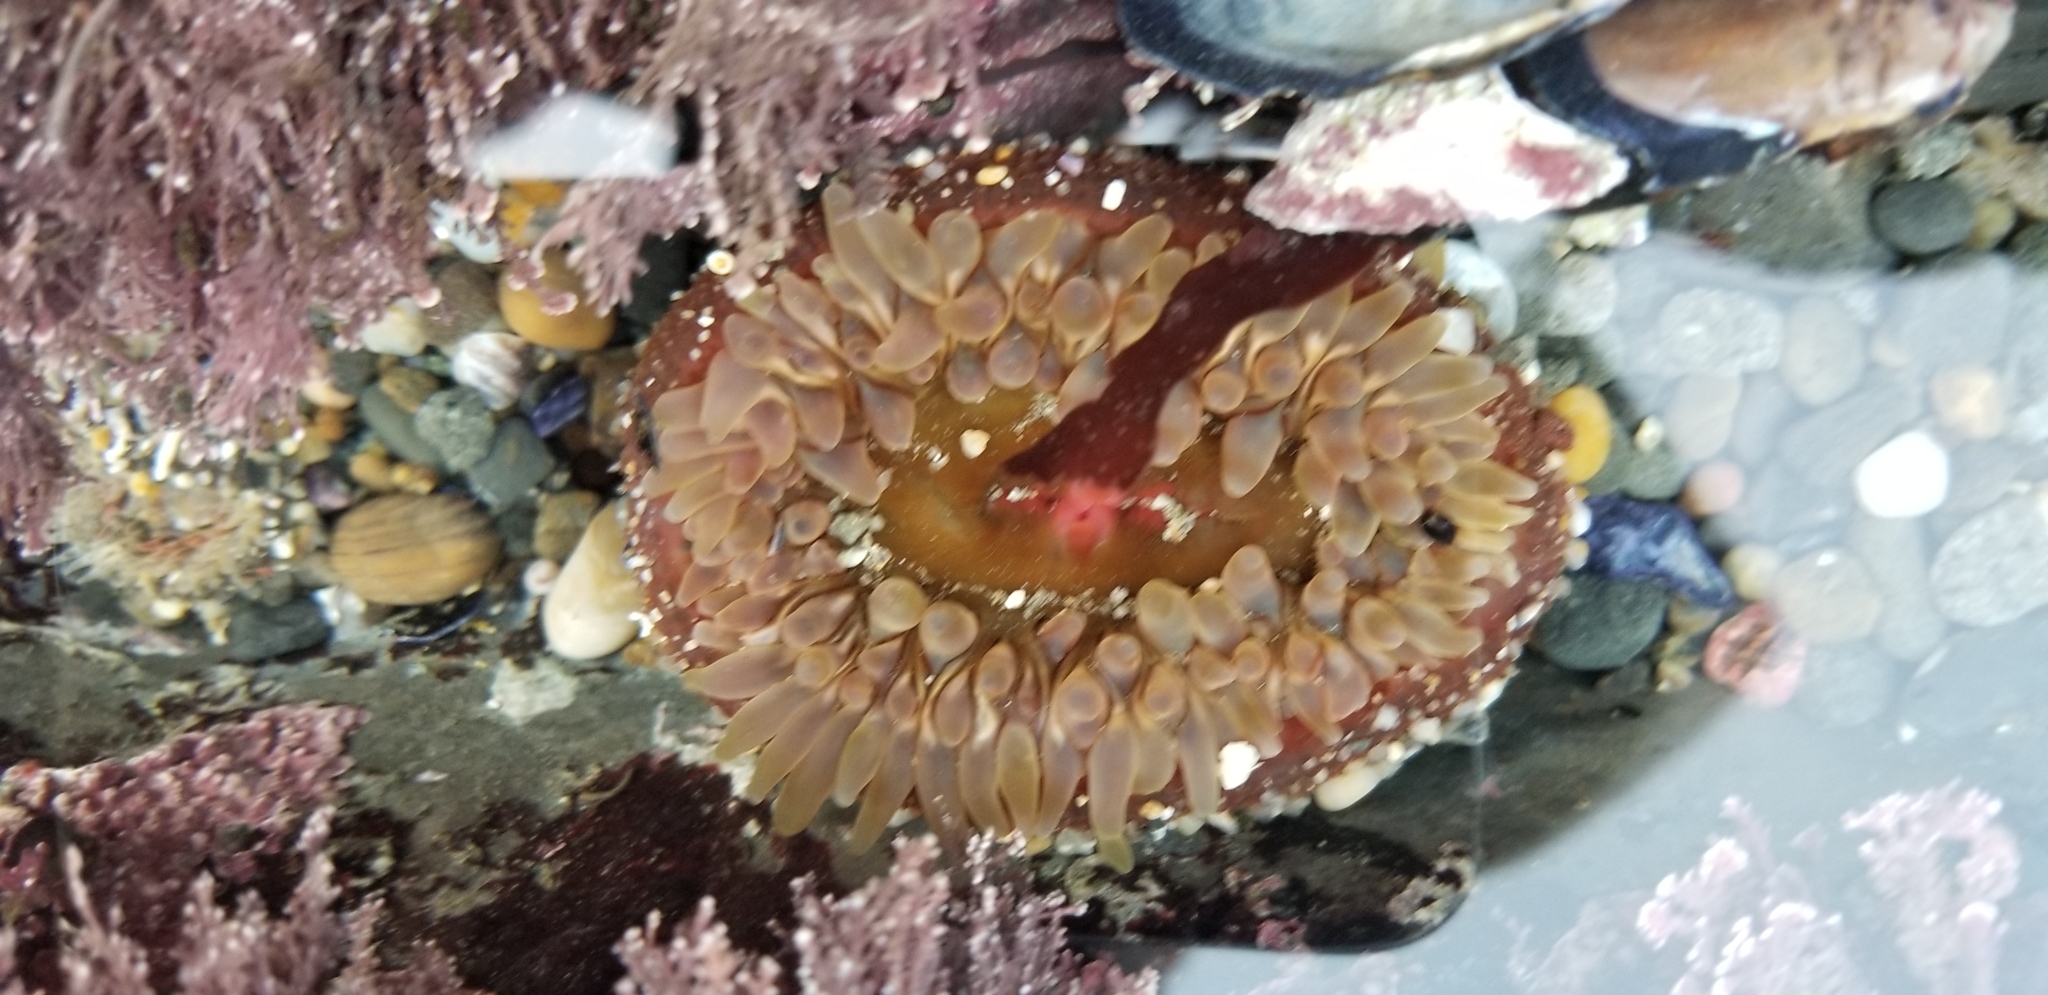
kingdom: Animalia
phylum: Cnidaria
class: Anthozoa
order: Actiniaria
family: Actiniidae
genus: Urticina
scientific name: Urticina clandestina
